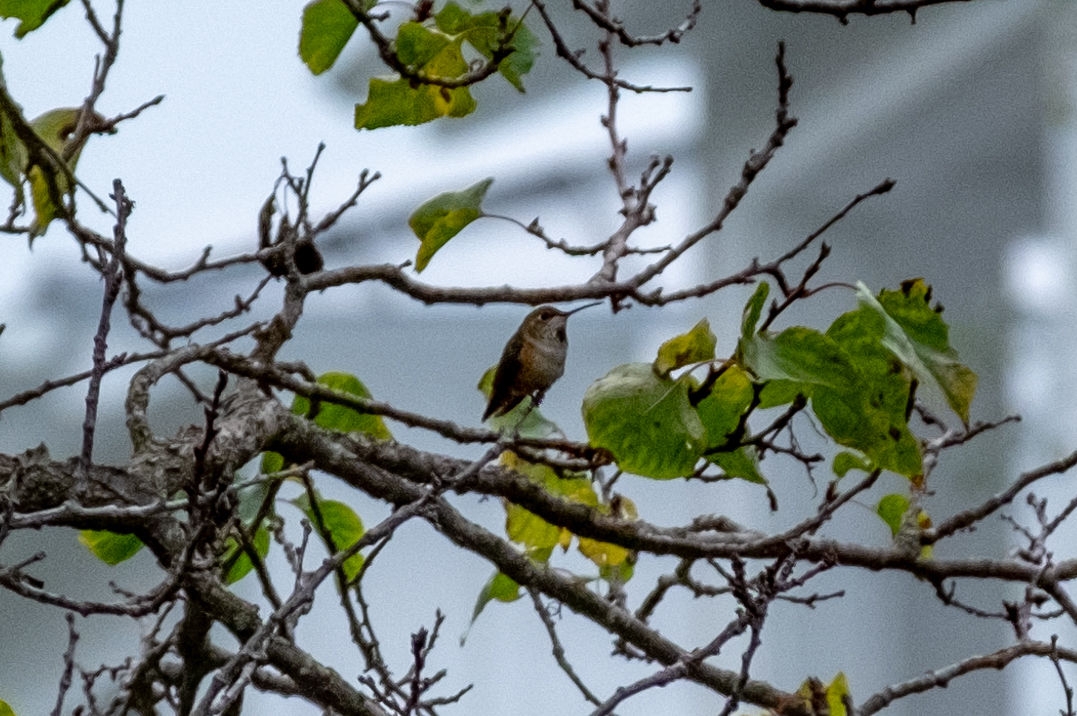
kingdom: Animalia
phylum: Chordata
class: Aves
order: Apodiformes
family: Trochilidae
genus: Selasphorus
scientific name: Selasphorus sasin
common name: Allen's hummingbird
